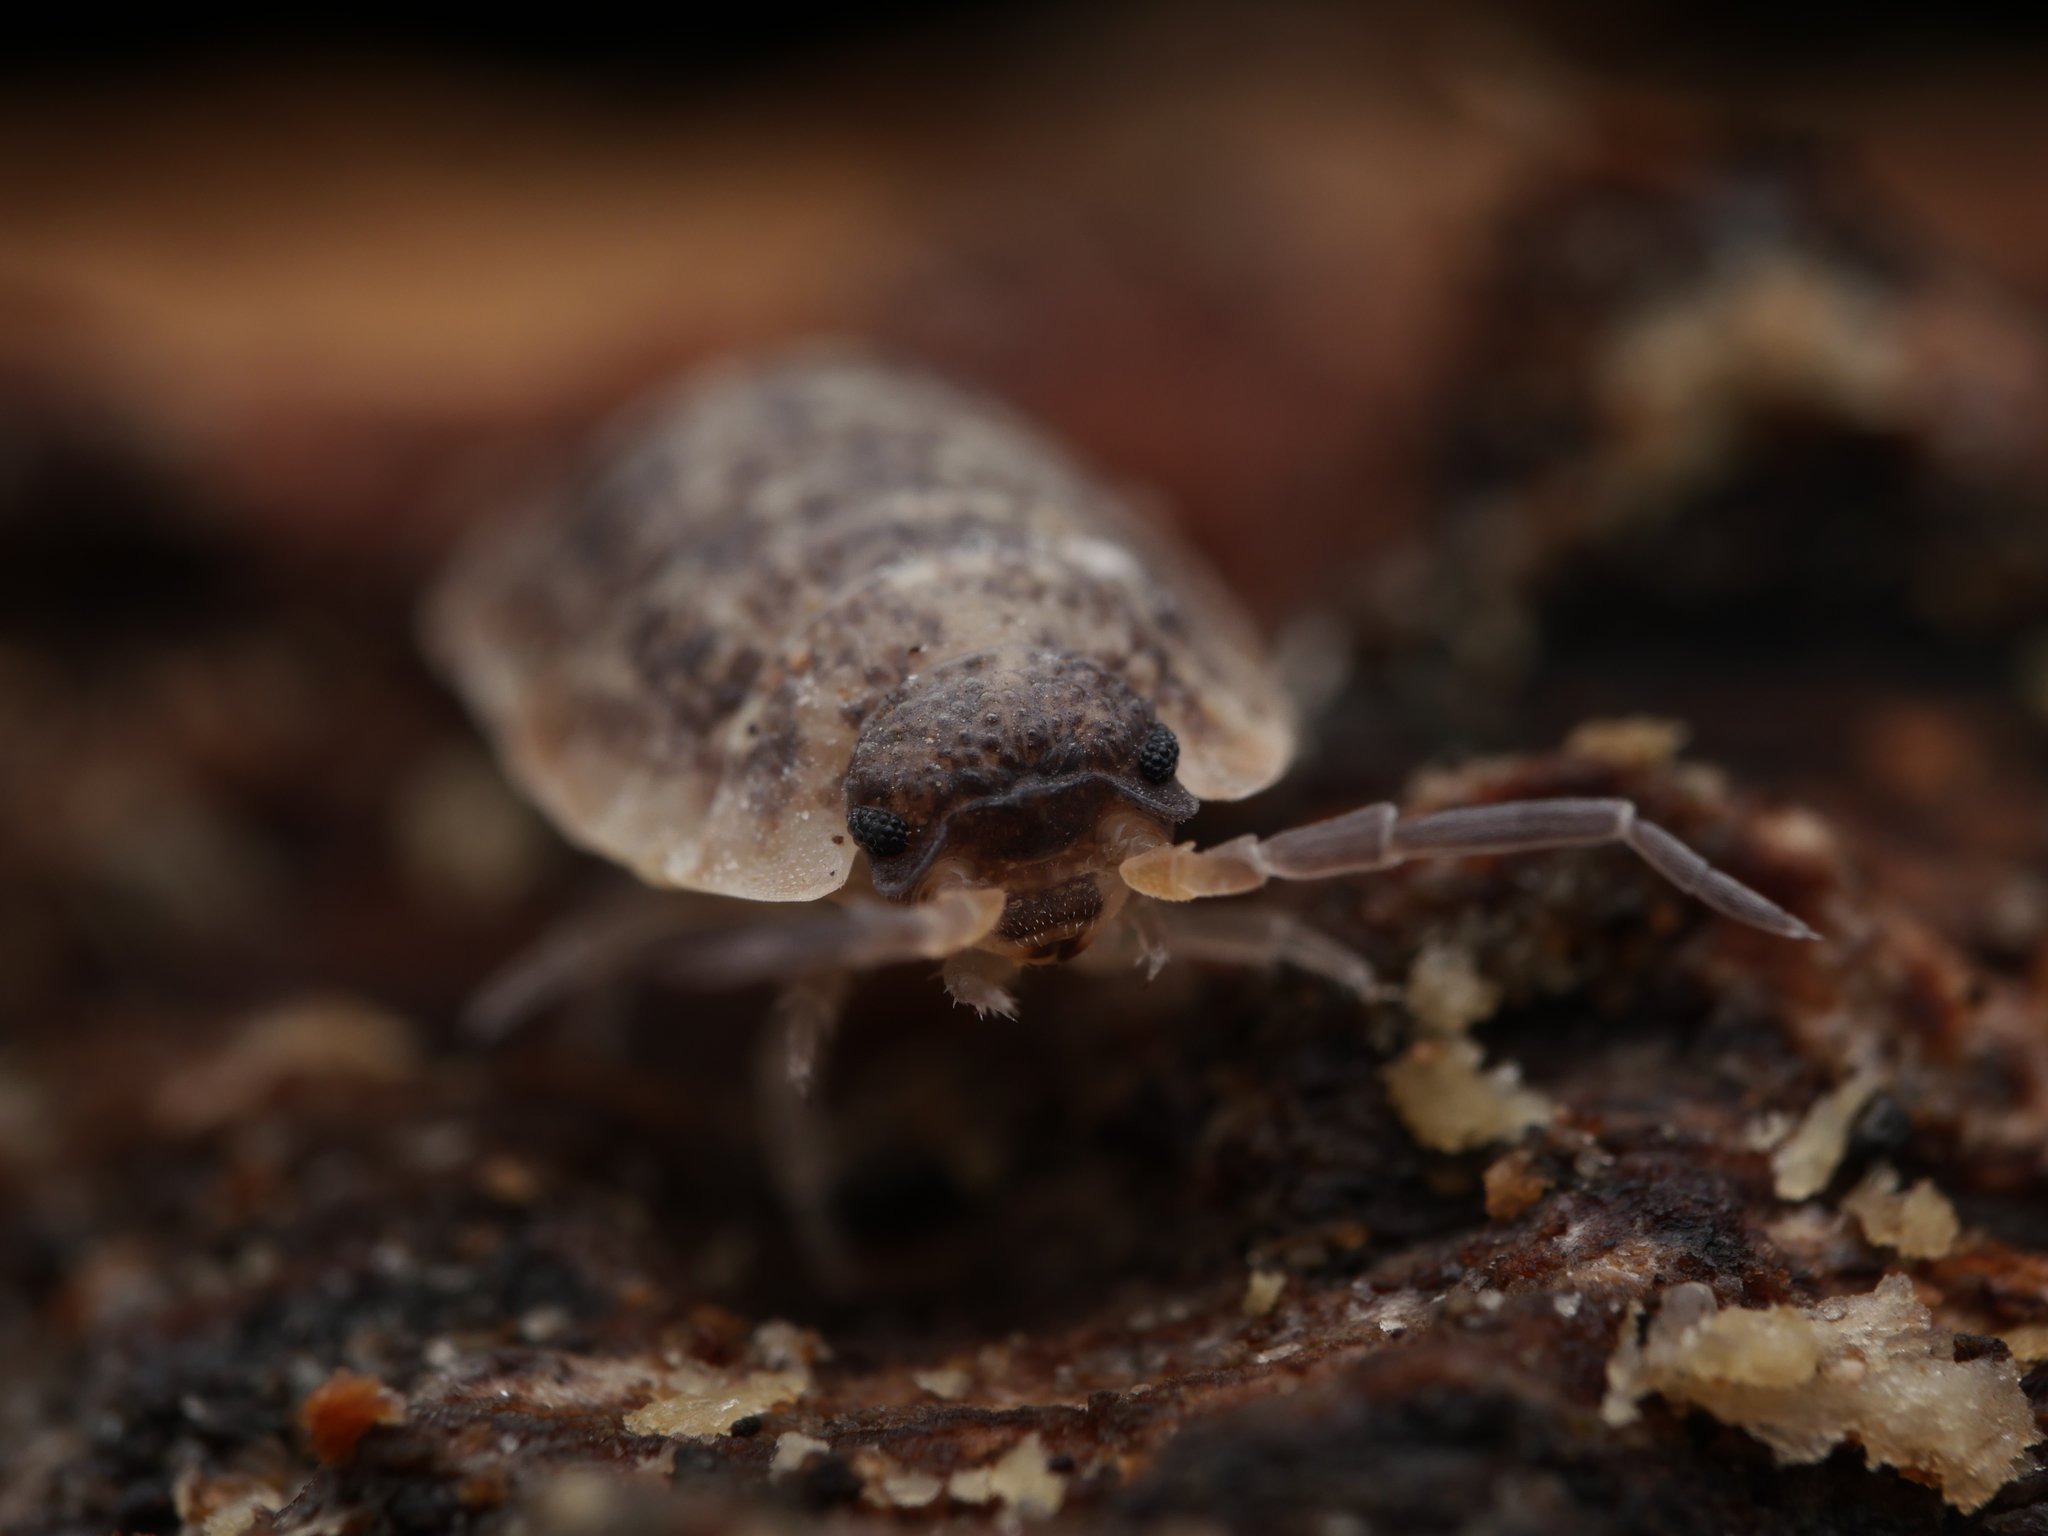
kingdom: Animalia
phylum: Arthropoda
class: Malacostraca
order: Isopoda
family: Porcellionidae
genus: Porcellio
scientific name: Porcellio scaber
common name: Common rough woodlouse
